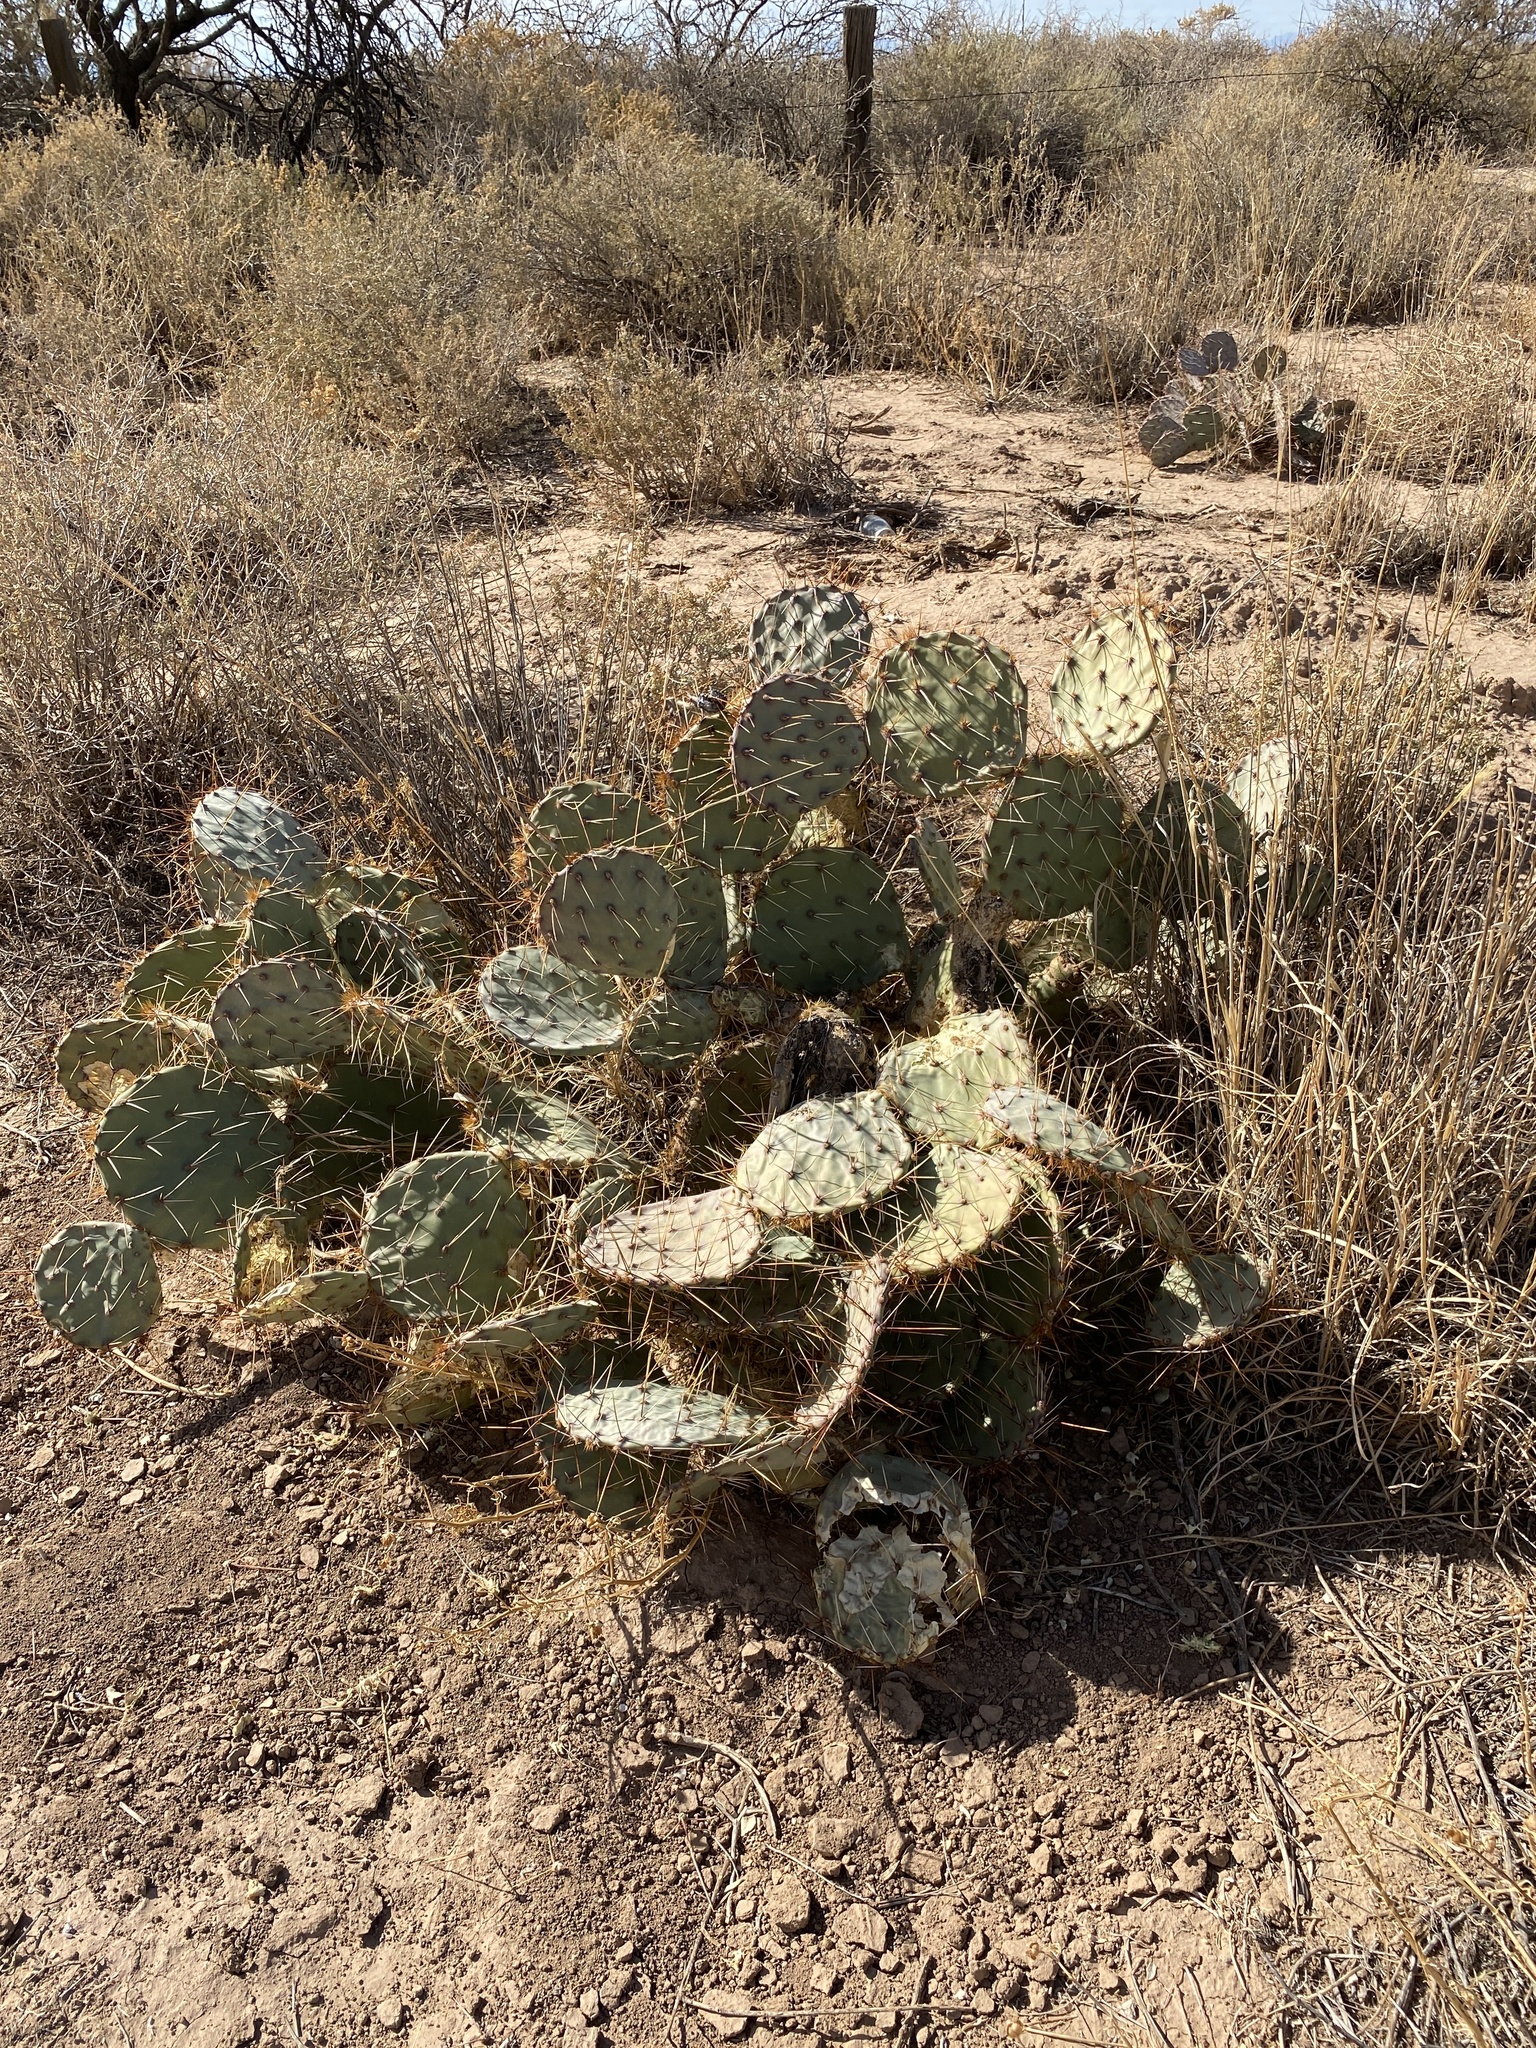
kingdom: Plantae
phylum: Tracheophyta
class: Magnoliopsida
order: Caryophyllales
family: Cactaceae
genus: Opuntia
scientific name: Opuntia phaeacantha
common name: New mexico prickly-pear
